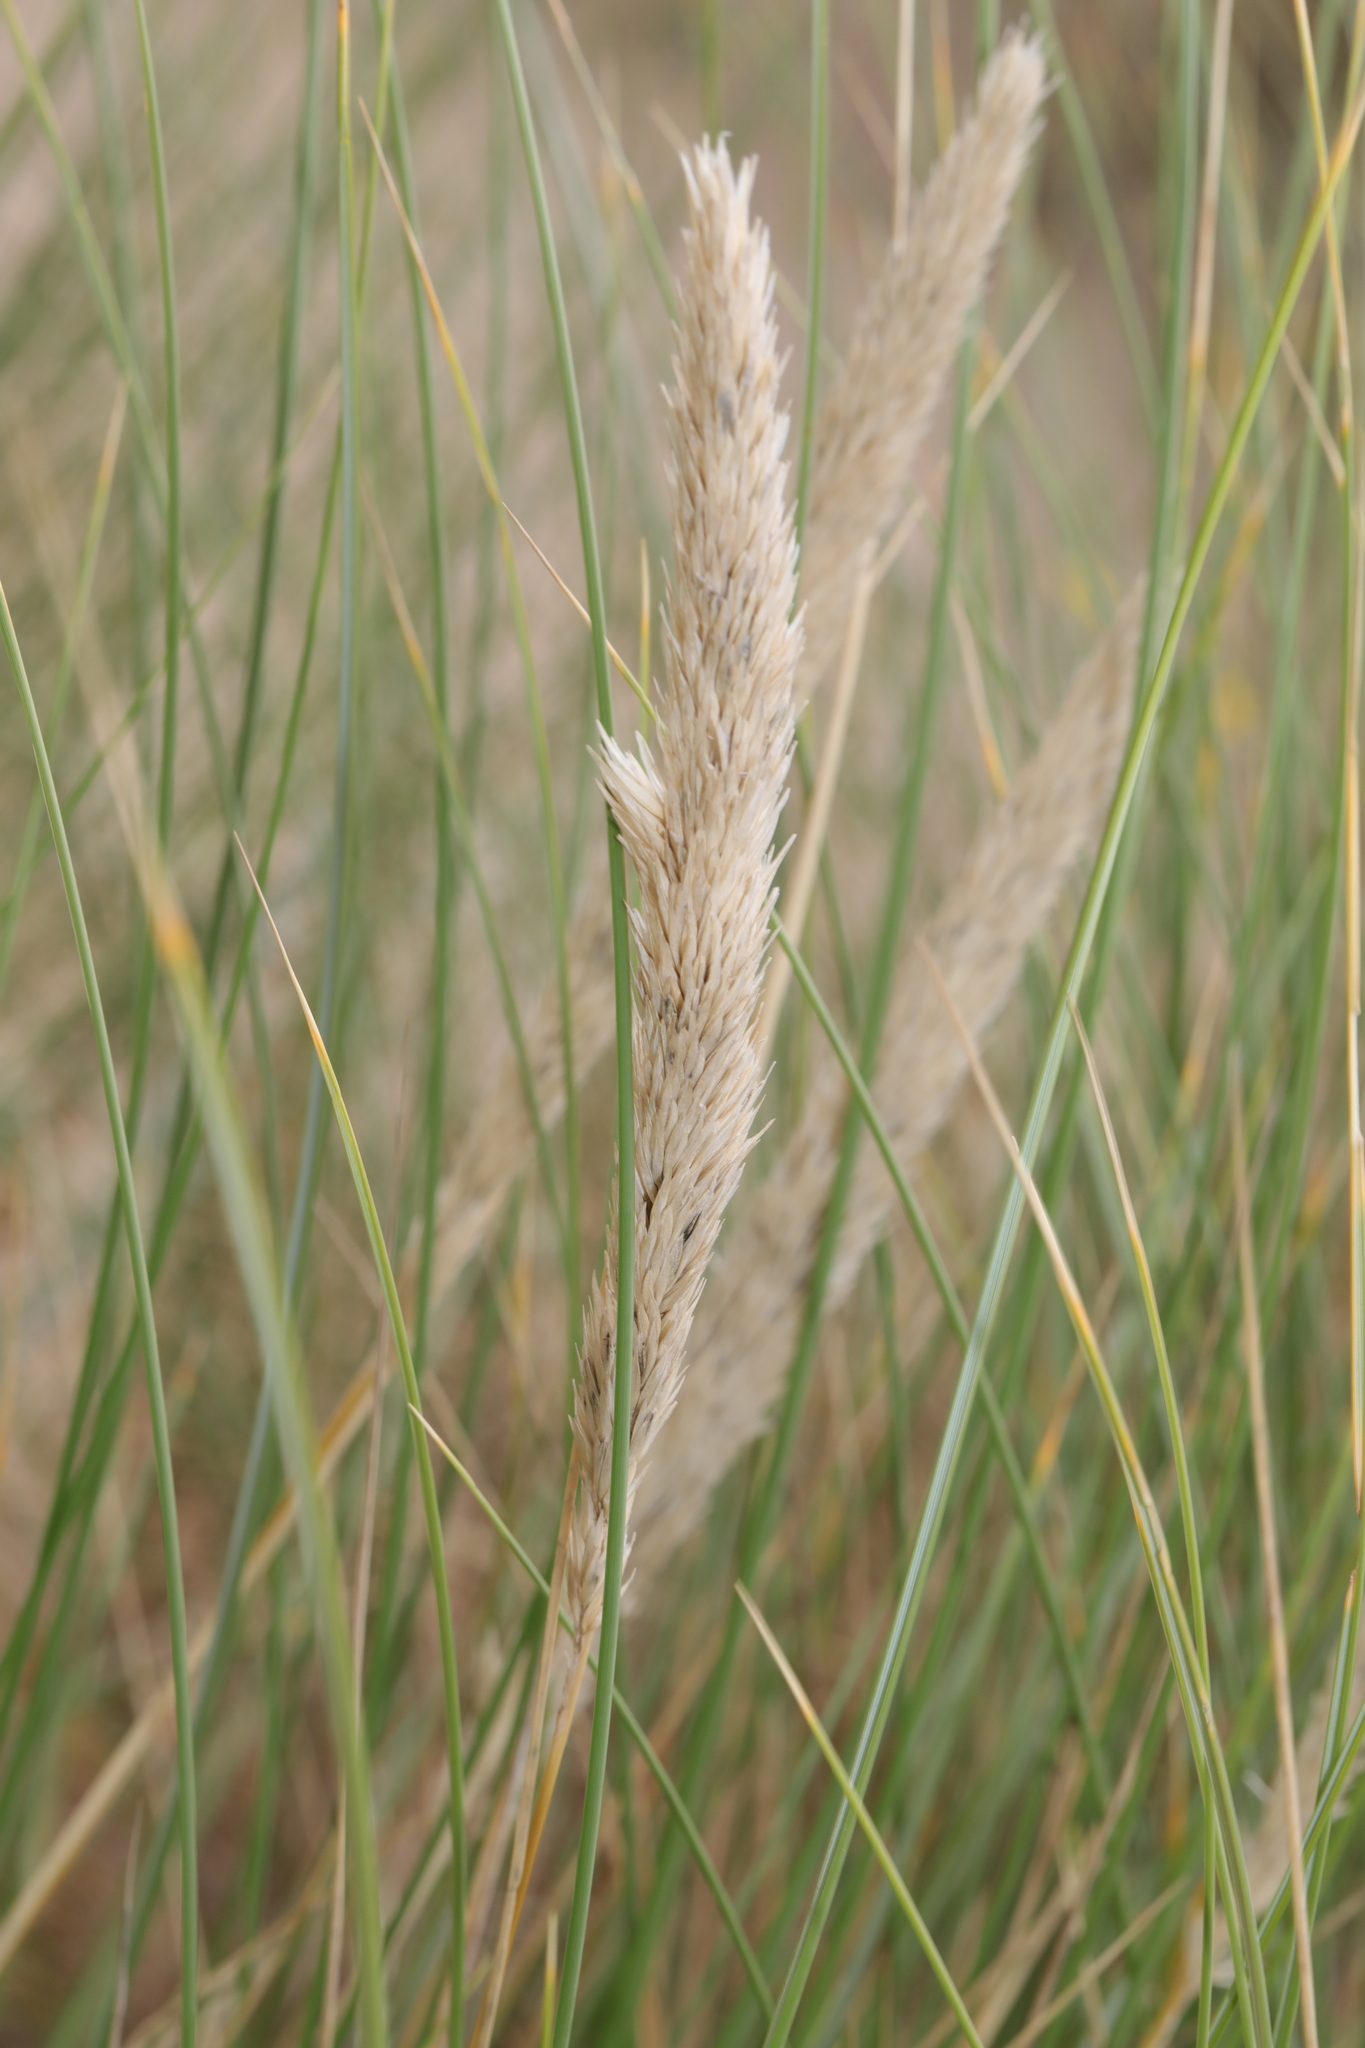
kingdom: Plantae
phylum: Tracheophyta
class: Liliopsida
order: Poales
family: Poaceae
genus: Calamagrostis
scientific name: Calamagrostis arenaria
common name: European beachgrass
